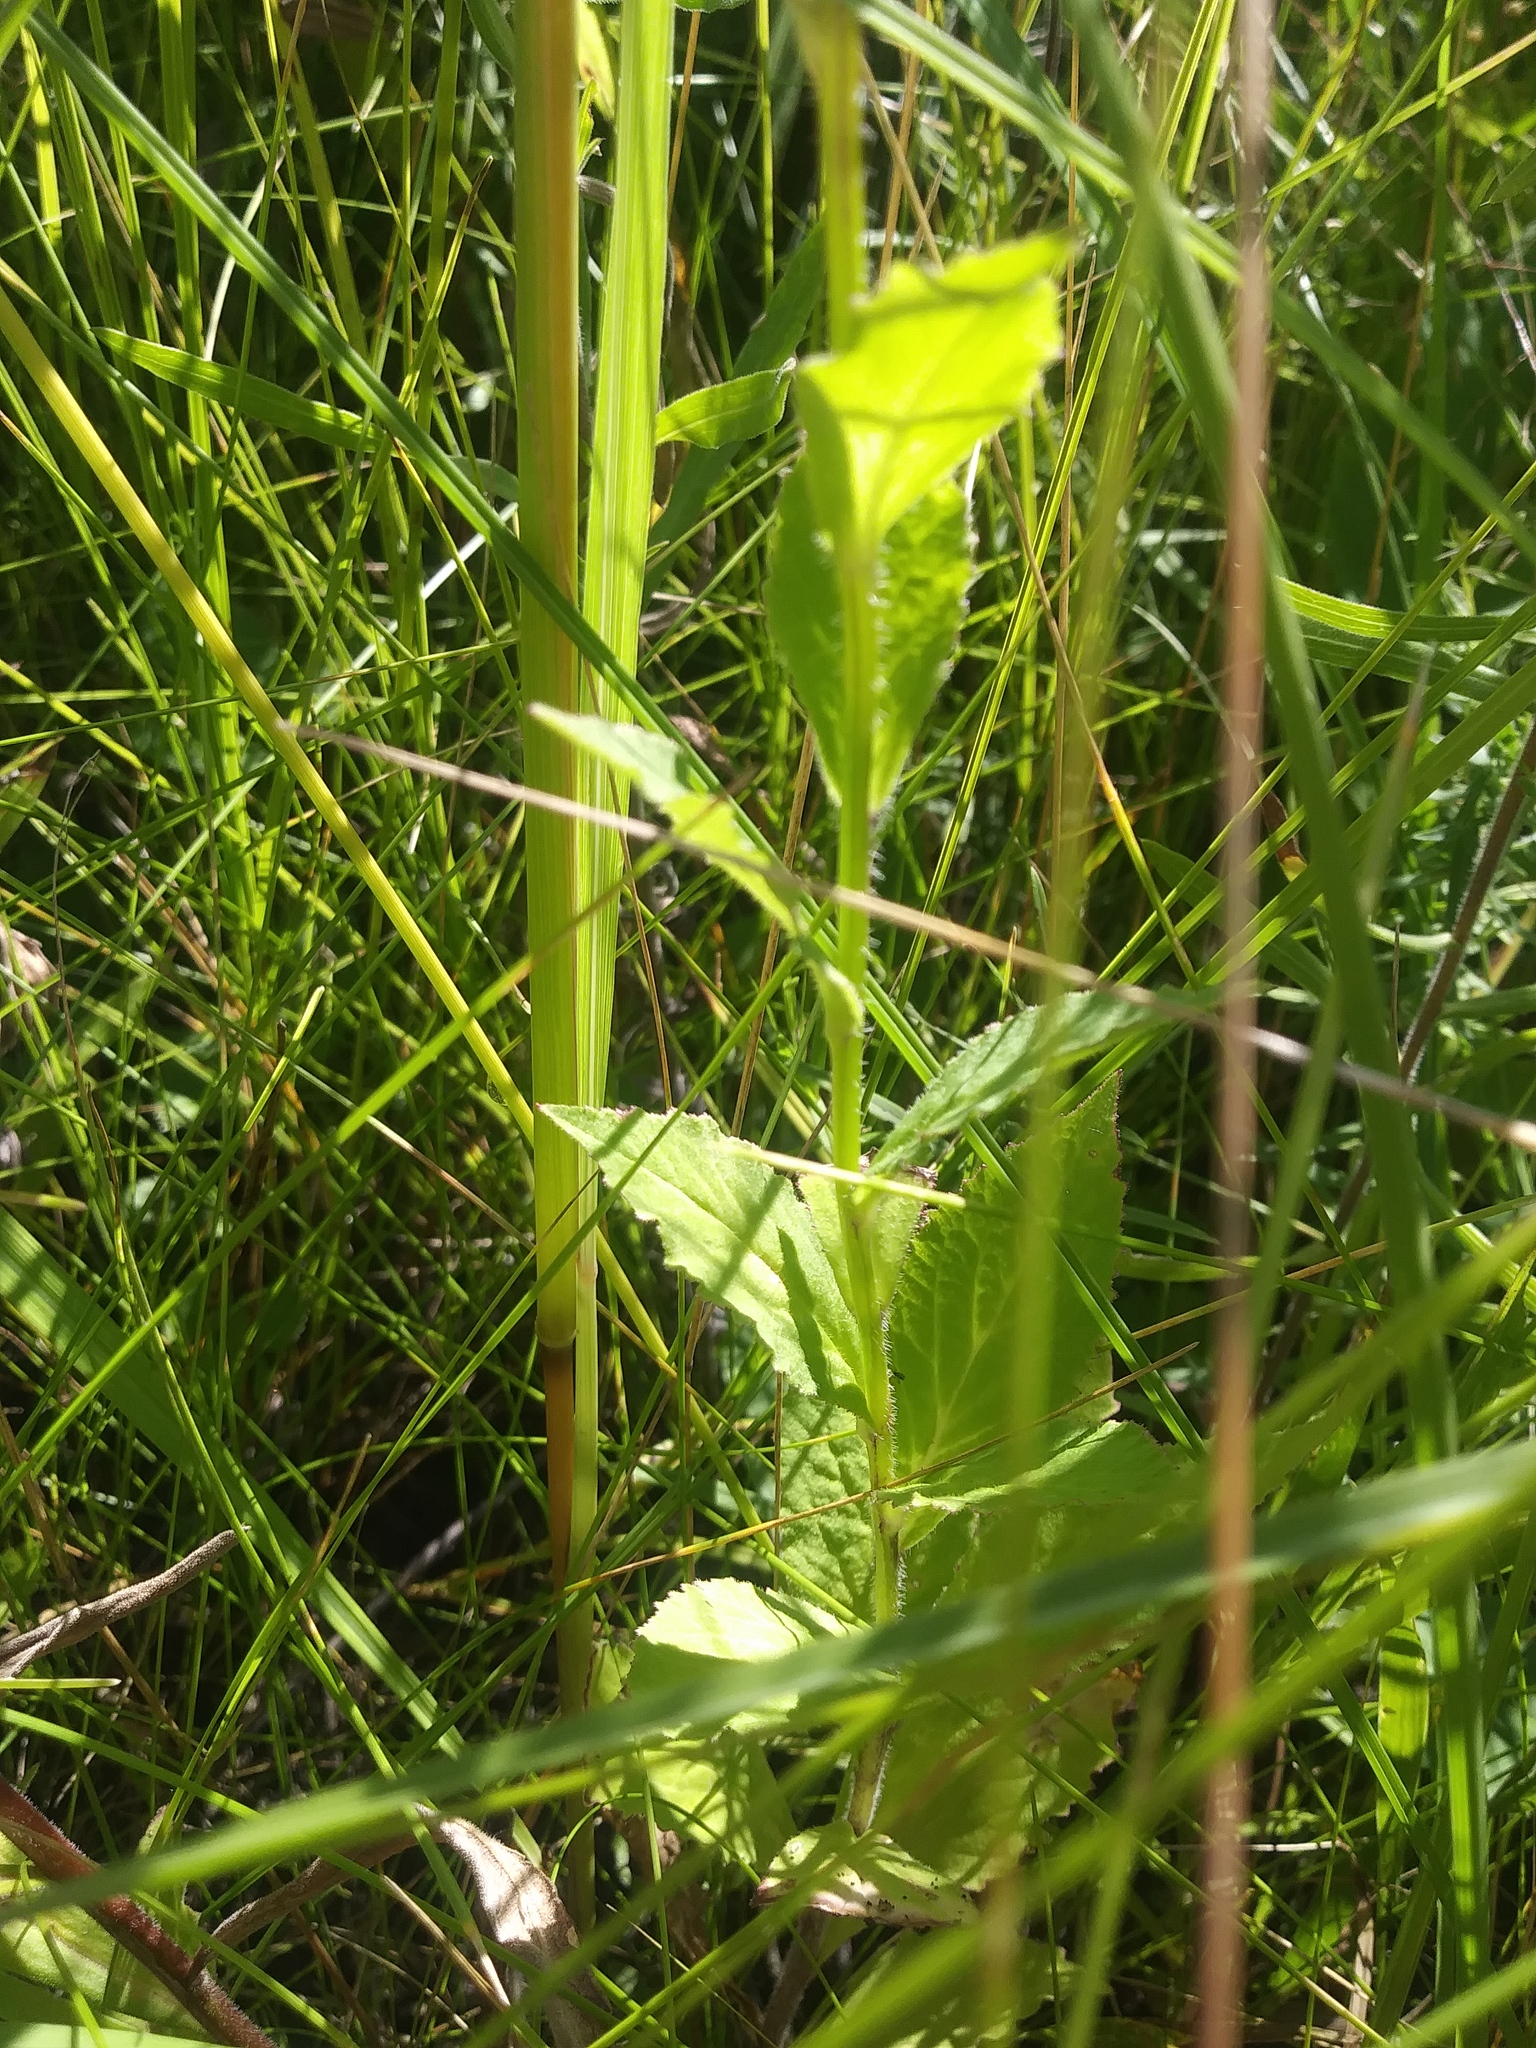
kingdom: Plantae
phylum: Tracheophyta
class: Magnoliopsida
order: Asterales
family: Campanulaceae
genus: Lobelia
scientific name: Lobelia siphilitica
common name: Great lobelia
